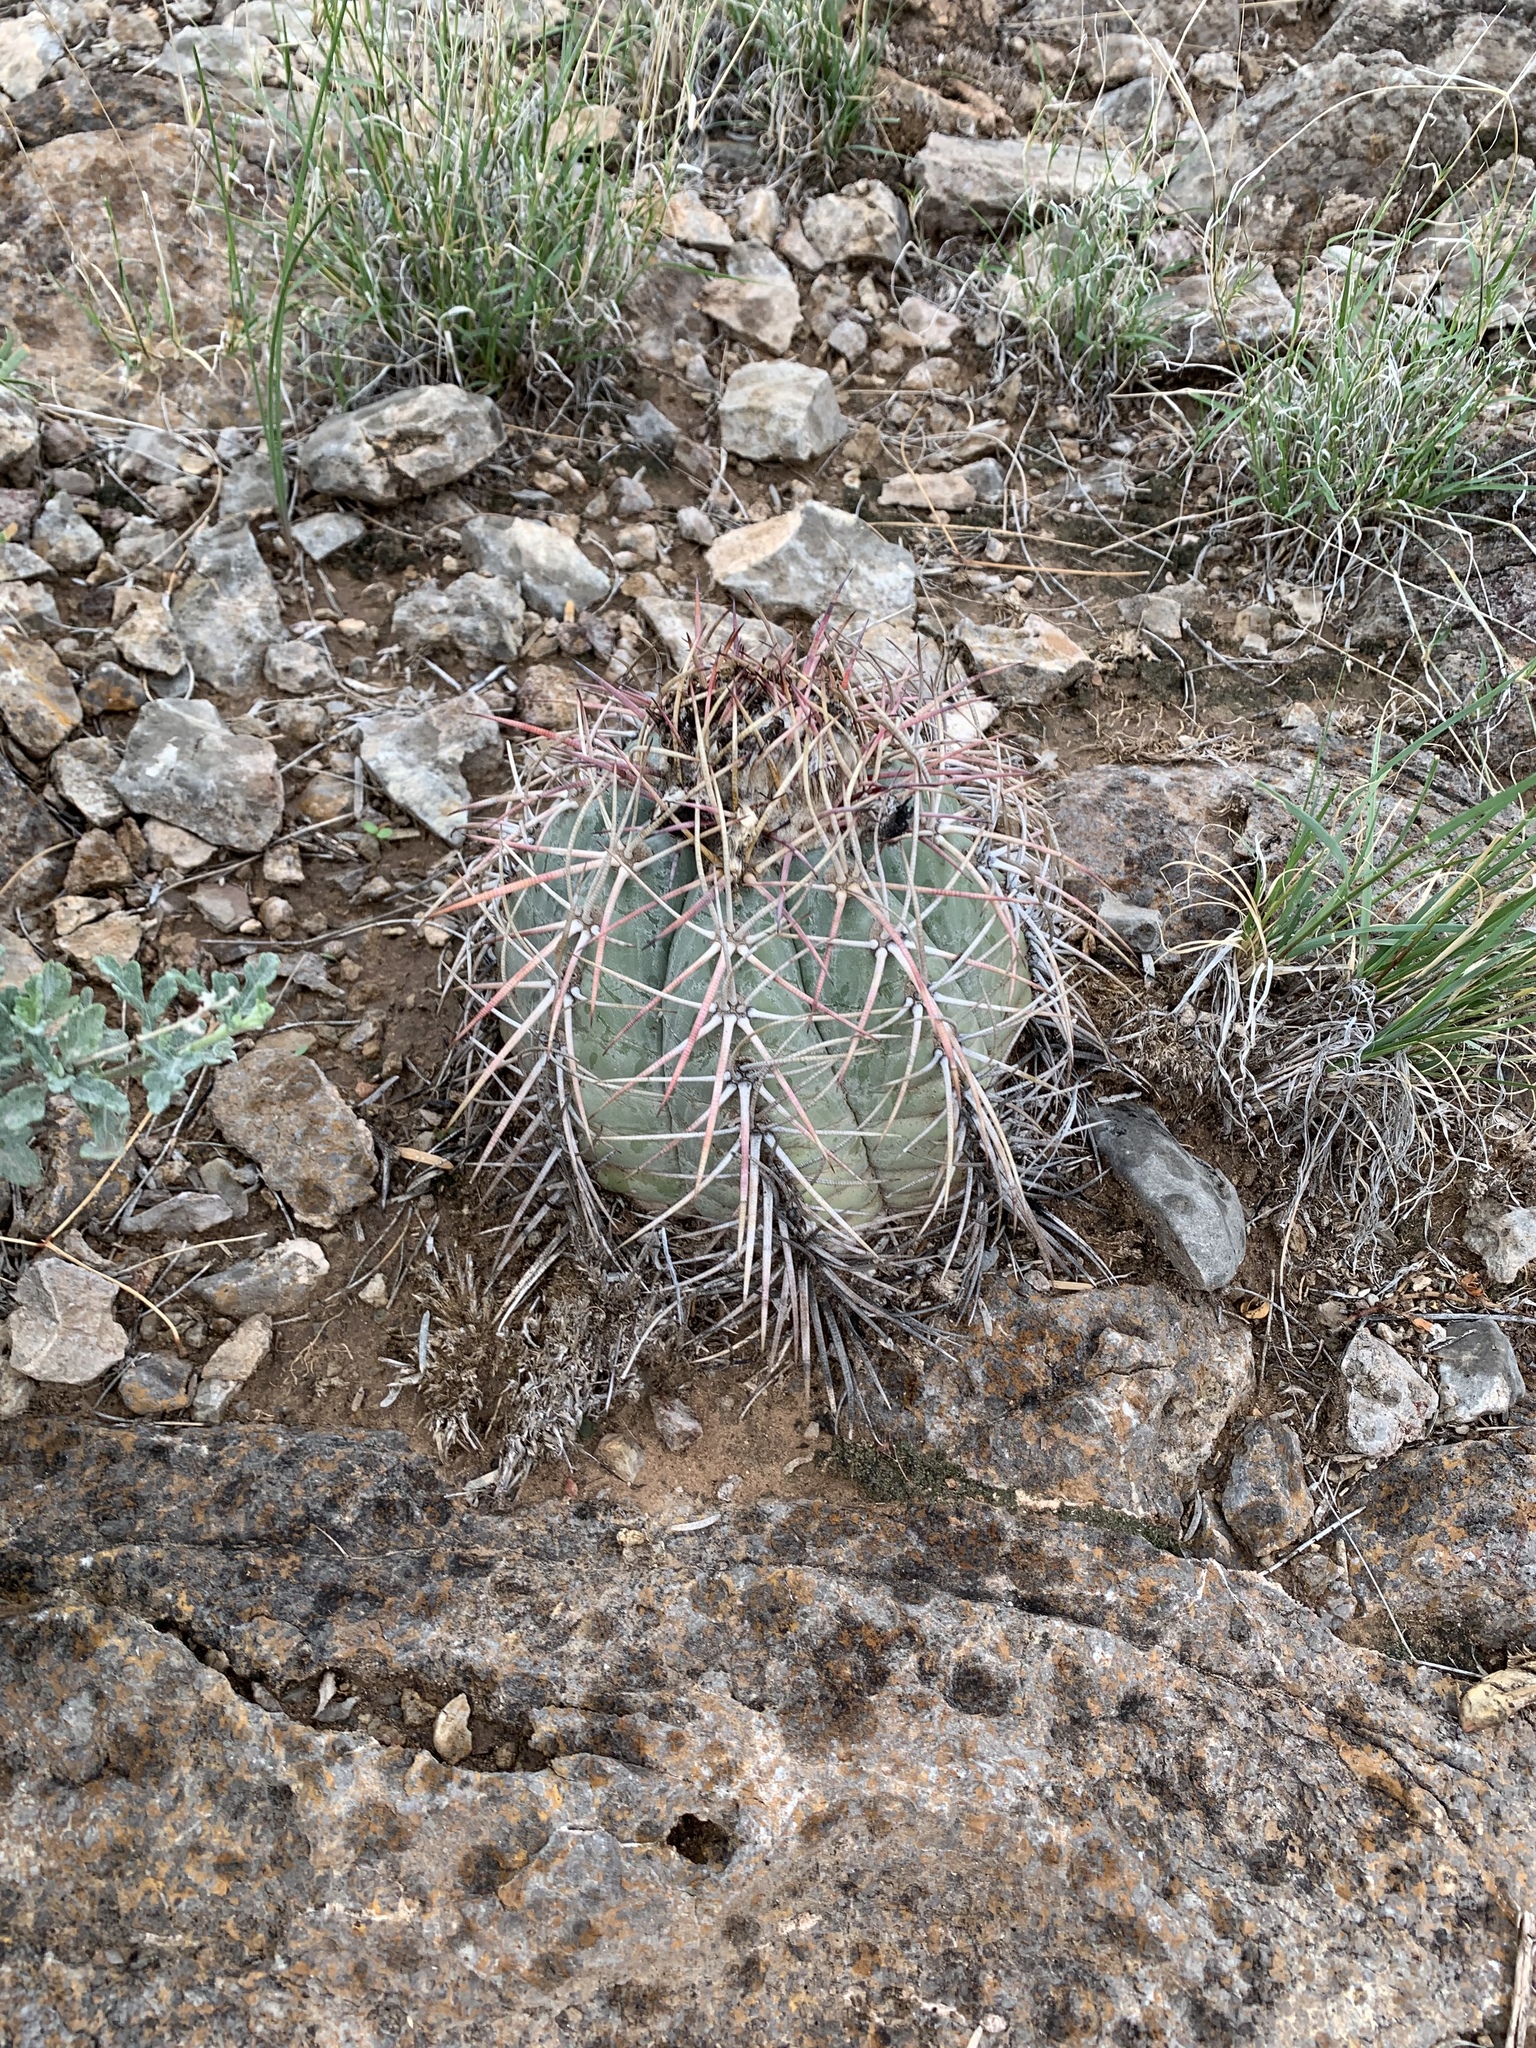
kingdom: Plantae
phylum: Tracheophyta
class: Magnoliopsida
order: Caryophyllales
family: Cactaceae
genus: Echinocactus
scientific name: Echinocactus horizonthalonius
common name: Devilshead
